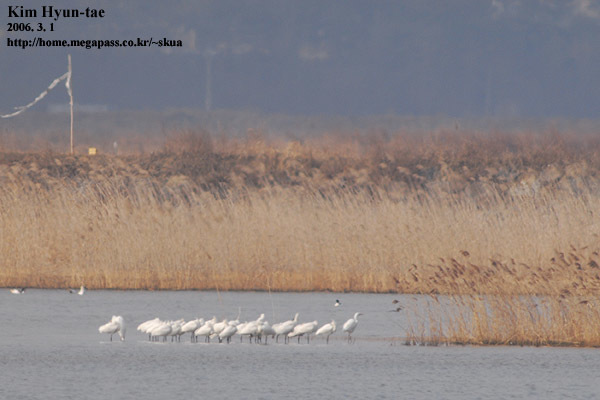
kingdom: Animalia
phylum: Chordata
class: Aves
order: Pelecaniformes
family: Threskiornithidae
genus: Platalea
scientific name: Platalea leucorodia
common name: Eurasian spoonbill
